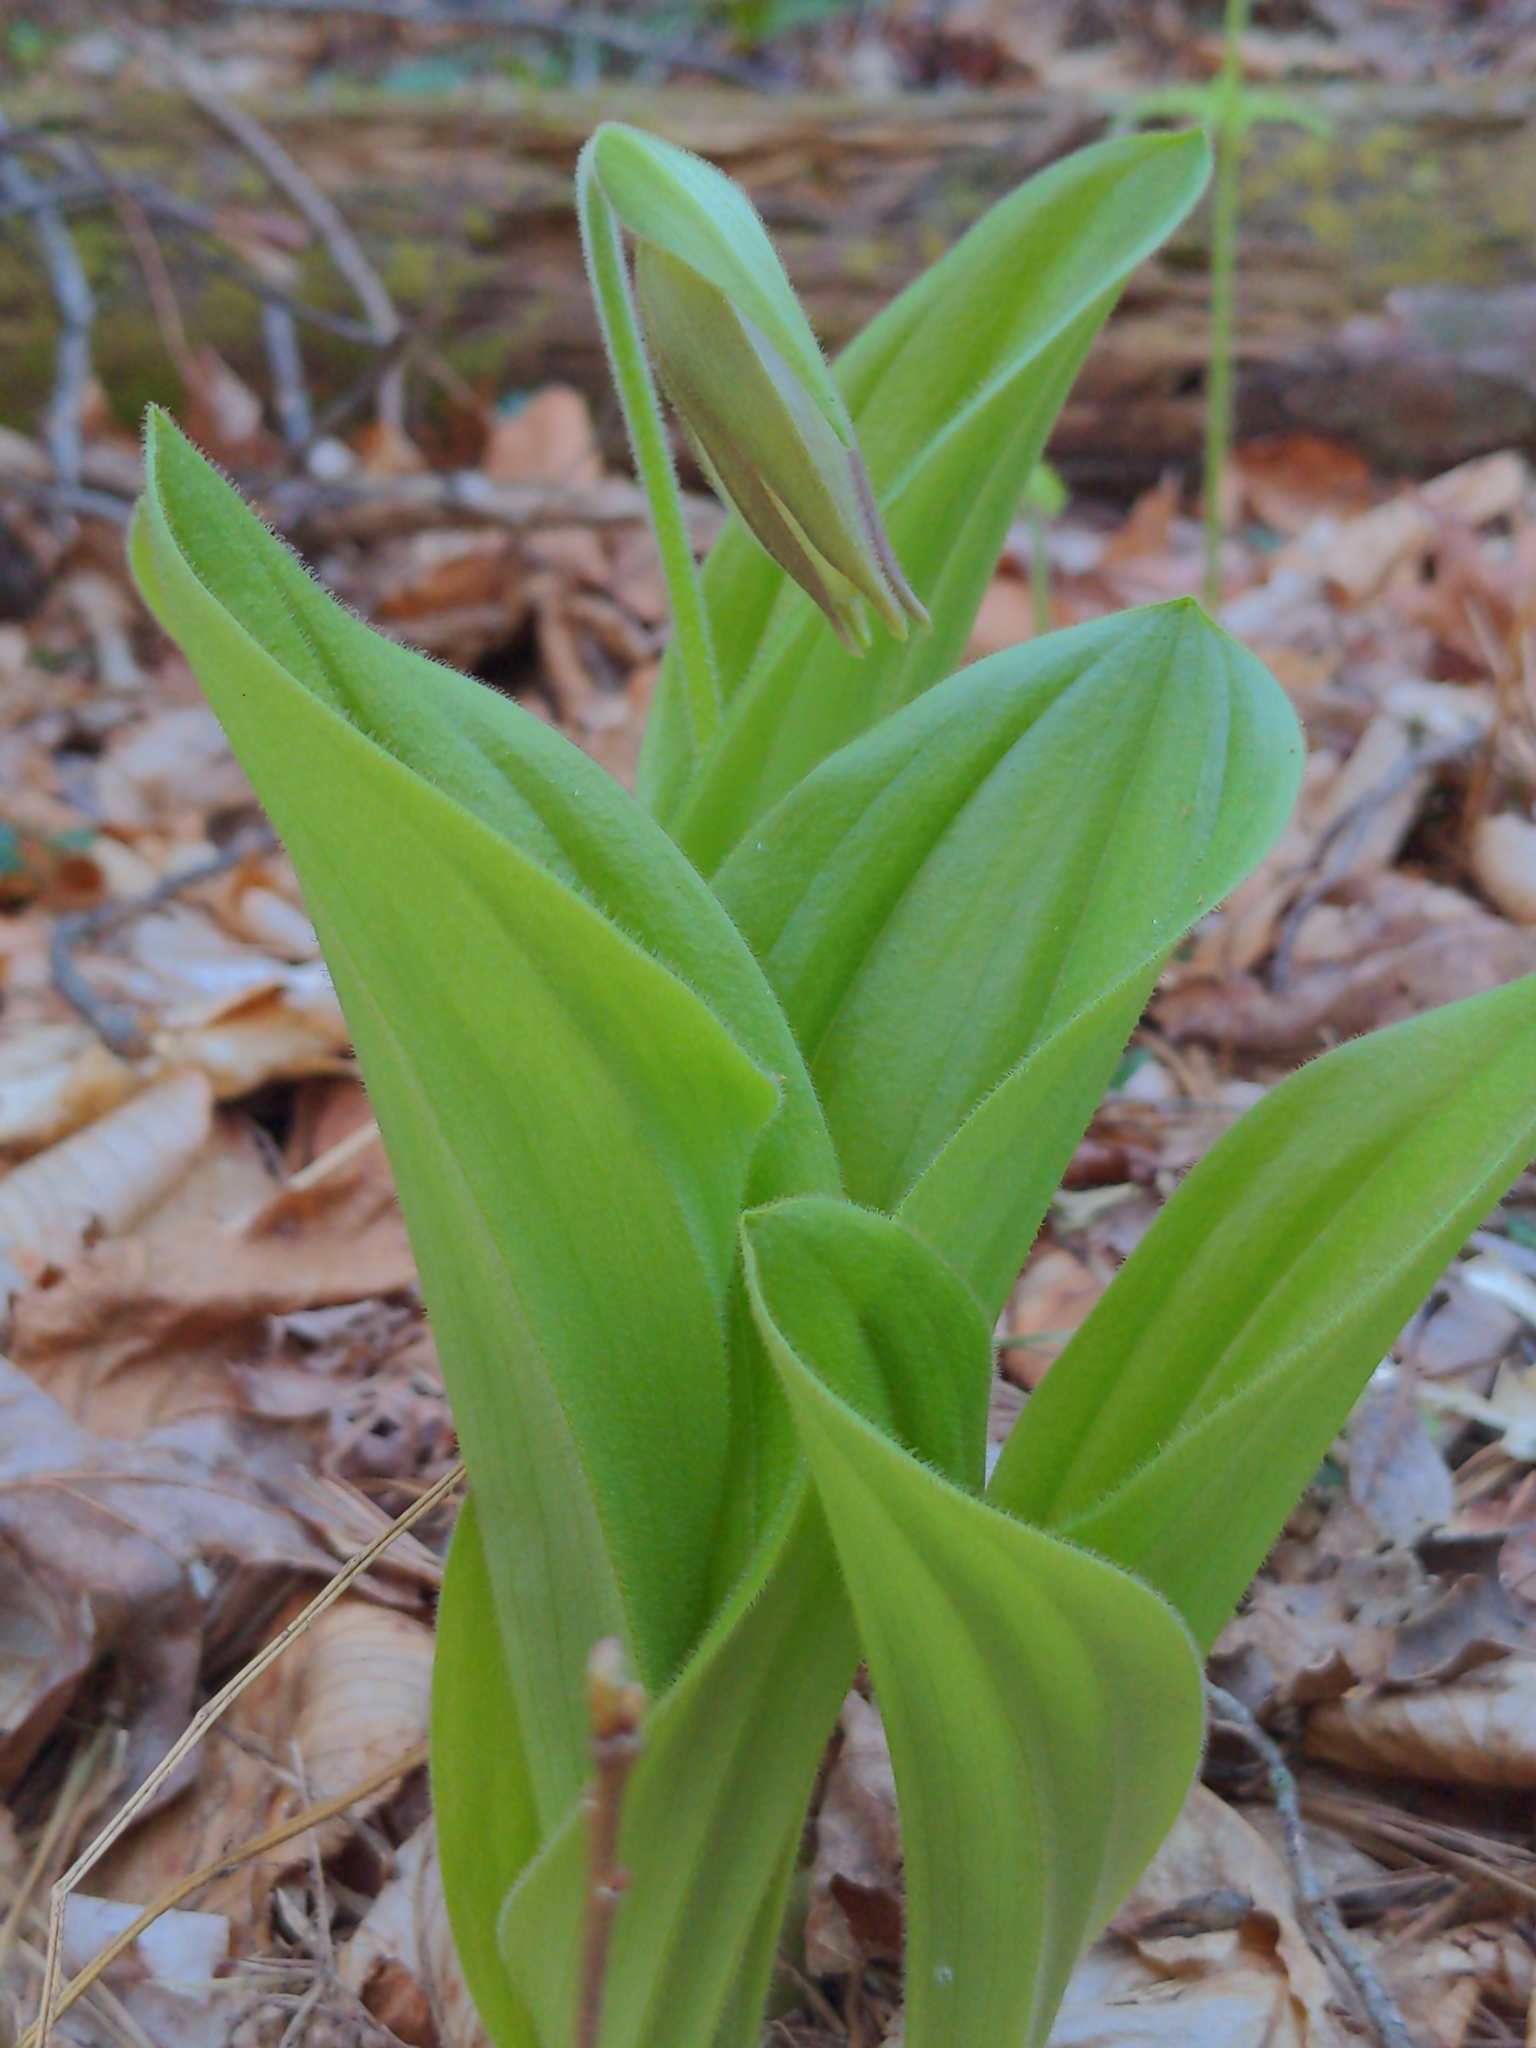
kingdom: Plantae
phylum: Tracheophyta
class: Liliopsida
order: Asparagales
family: Orchidaceae
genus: Cypripedium
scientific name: Cypripedium acaule
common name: Pink lady's-slipper
